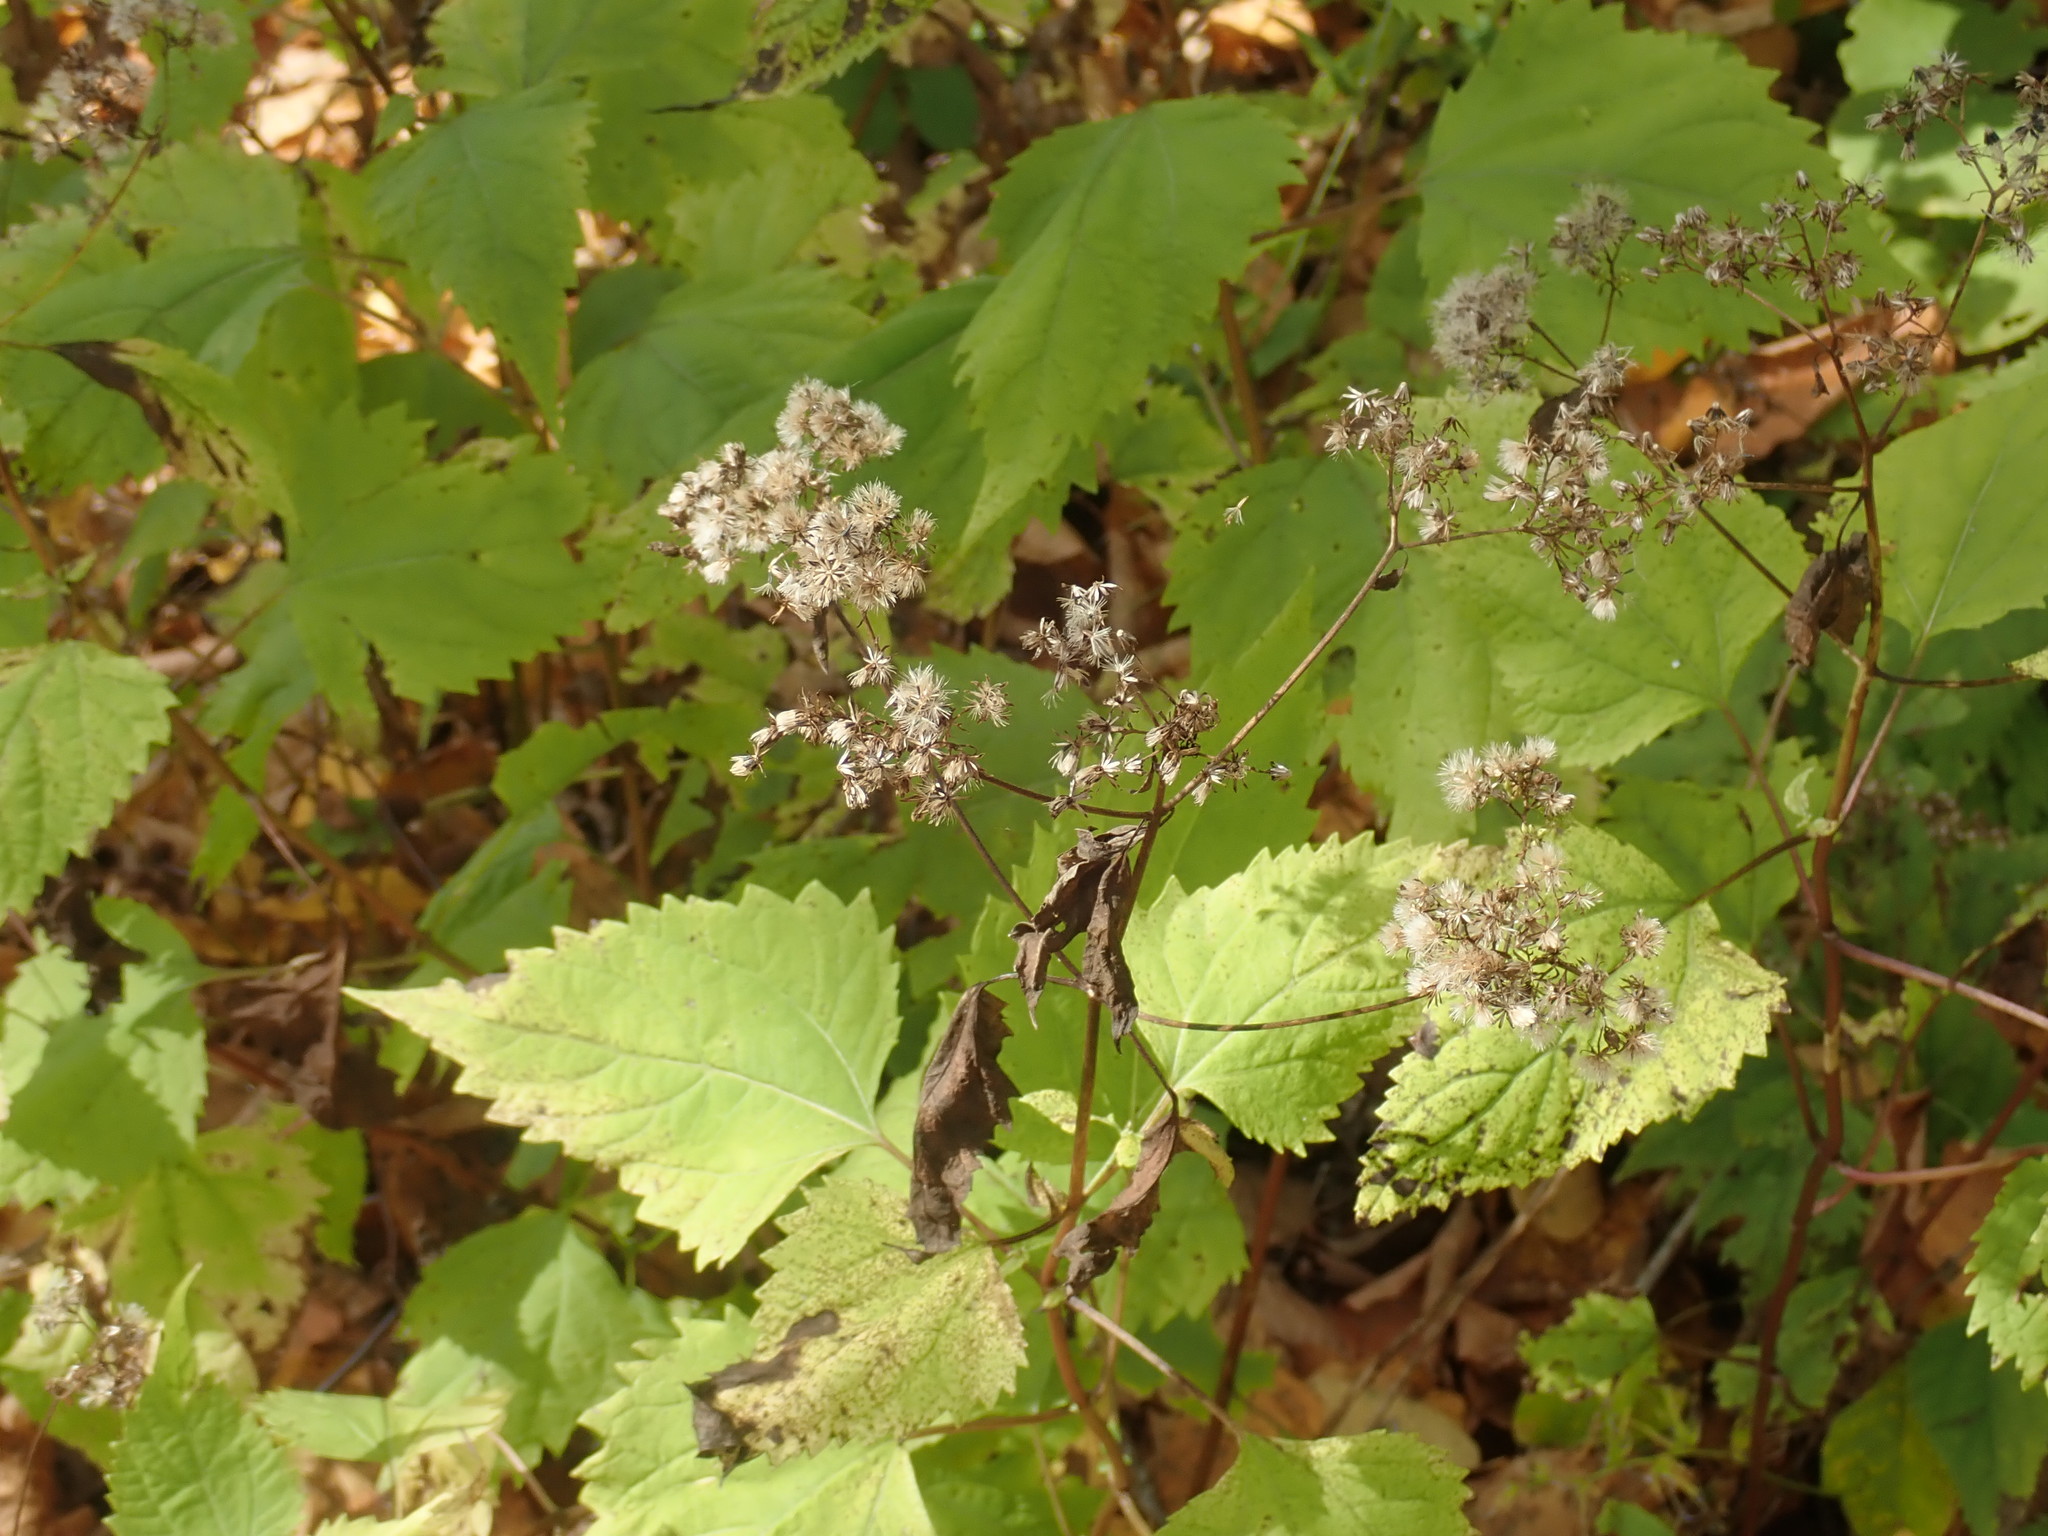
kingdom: Plantae
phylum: Tracheophyta
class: Magnoliopsida
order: Asterales
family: Asteraceae
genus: Ageratina
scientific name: Ageratina altissima
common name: White snakeroot
